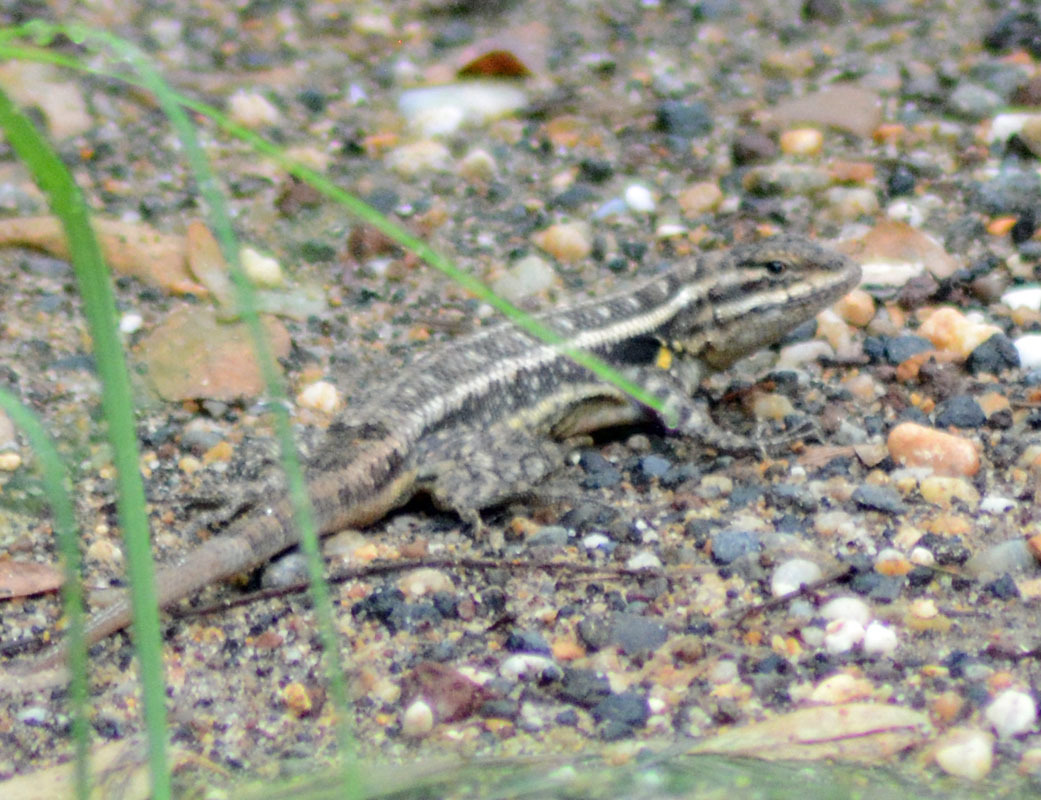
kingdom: Animalia
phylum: Chordata
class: Squamata
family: Phrynosomatidae
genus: Sceloporus
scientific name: Sceloporus variabilis
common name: Rosebelly lizard
